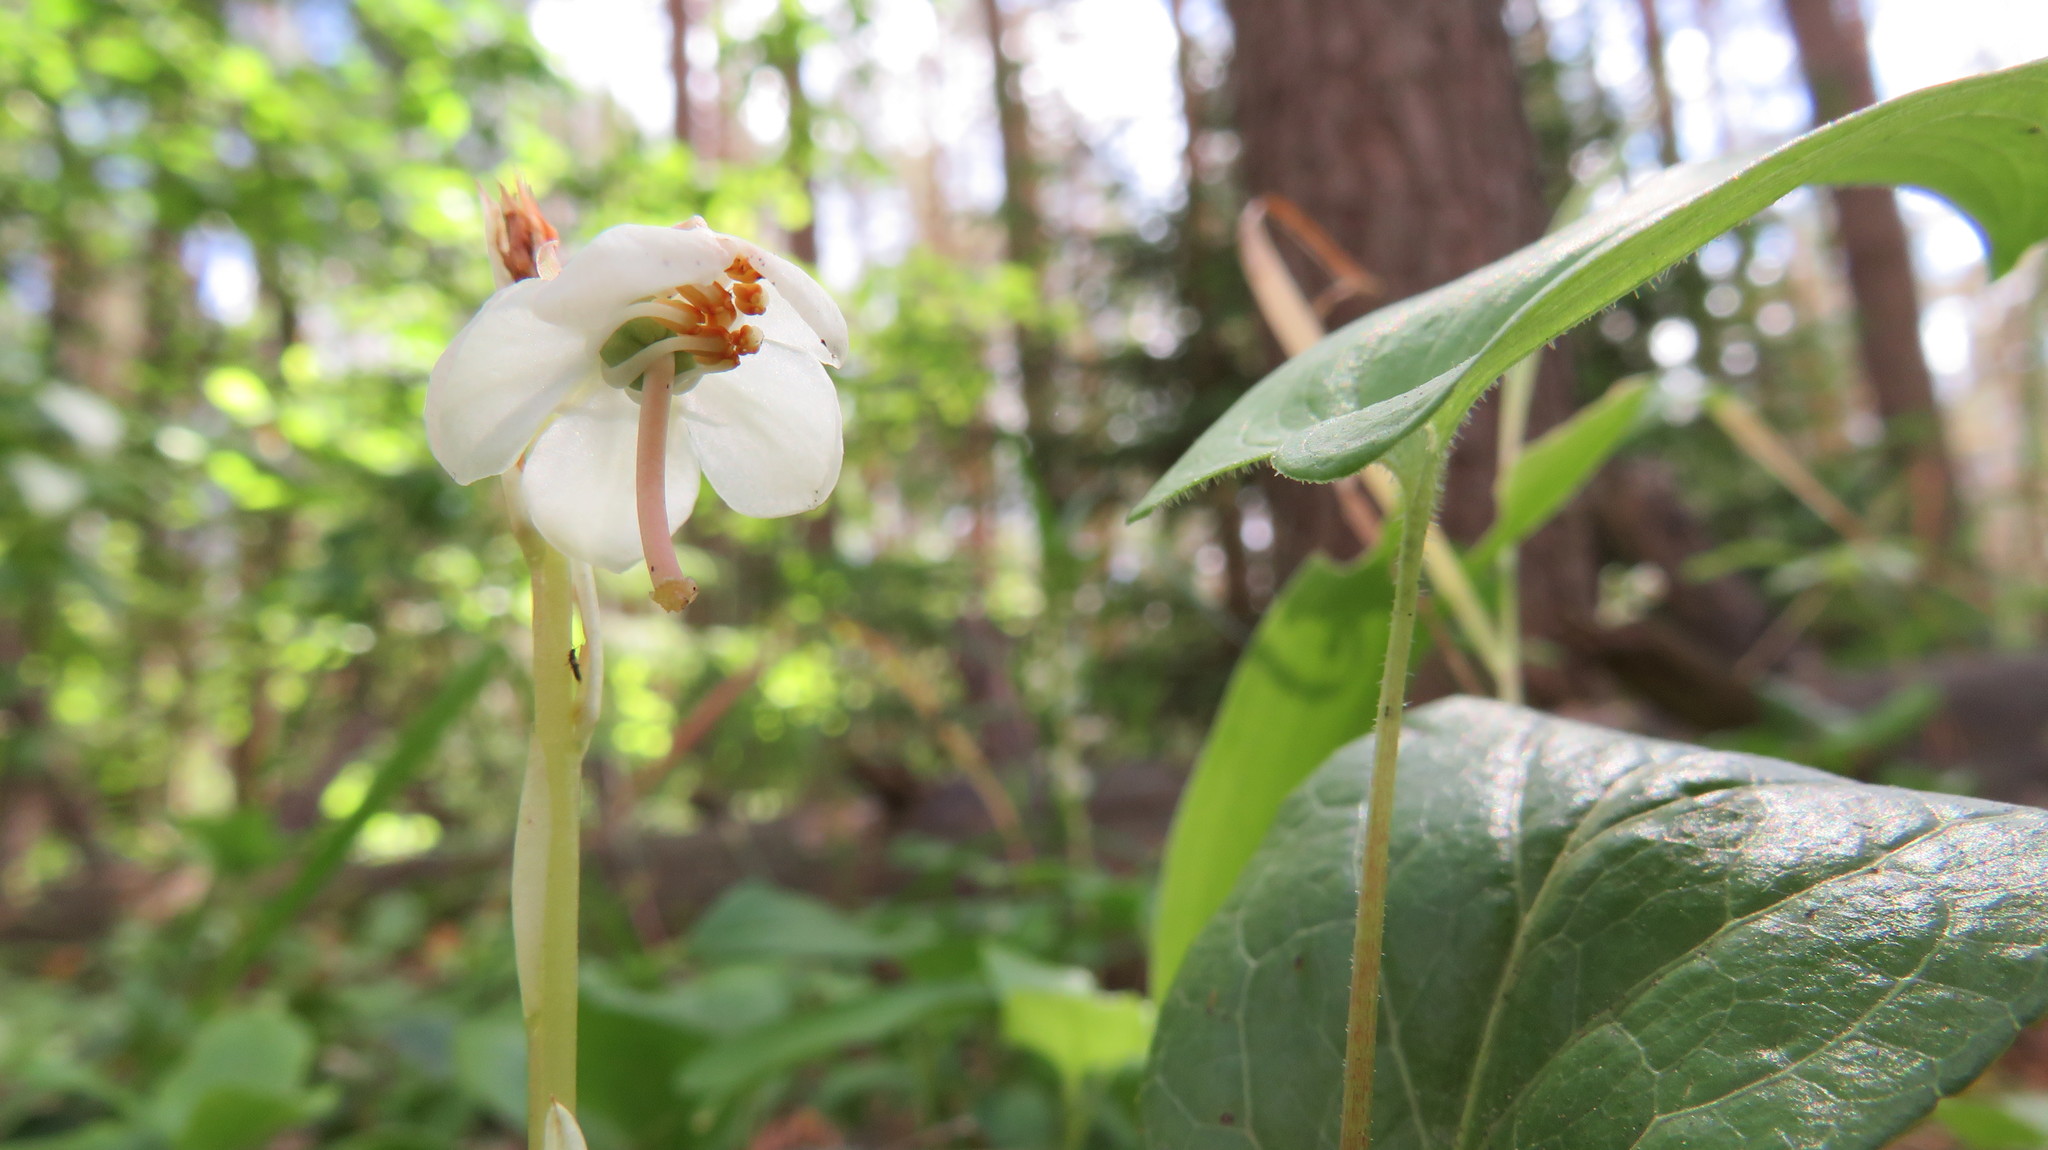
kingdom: Plantae
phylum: Tracheophyta
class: Magnoliopsida
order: Ericales
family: Ericaceae
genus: Pyrola
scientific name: Pyrola rotundifolia
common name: Round-leaved wintergreen
